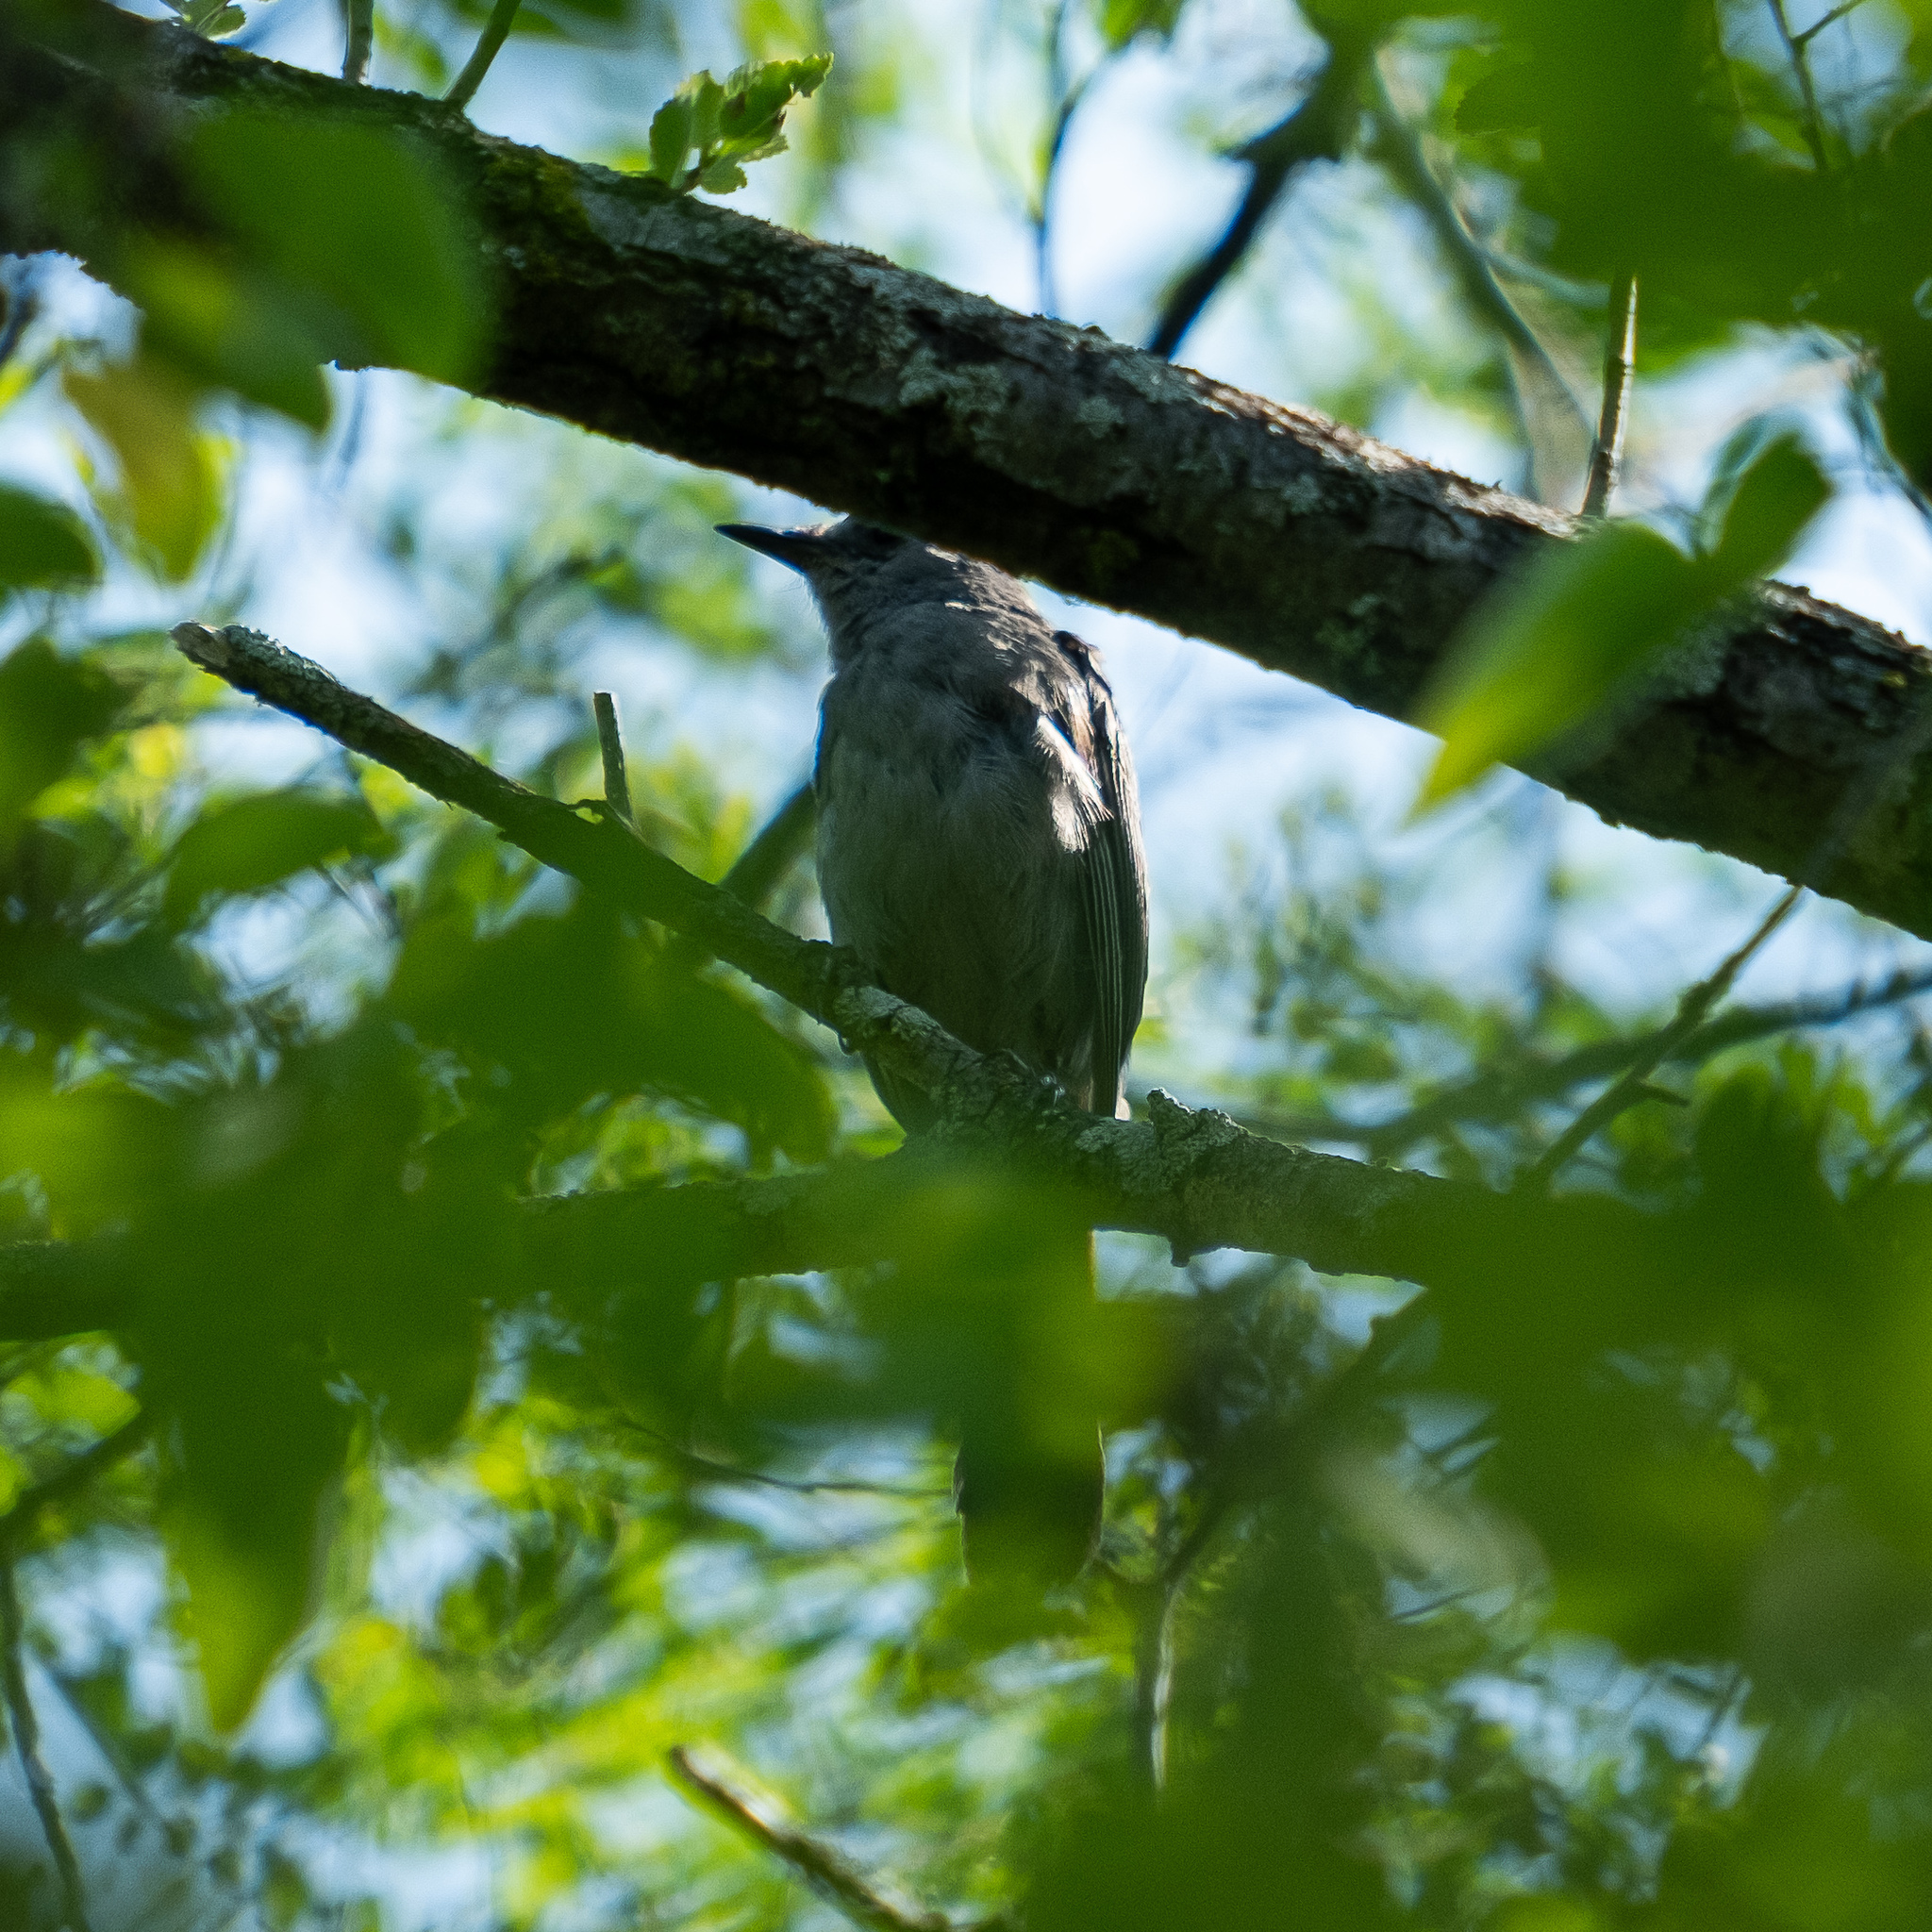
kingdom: Animalia
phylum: Chordata
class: Aves
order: Passeriformes
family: Mimidae
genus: Dumetella
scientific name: Dumetella carolinensis
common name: Gray catbird
